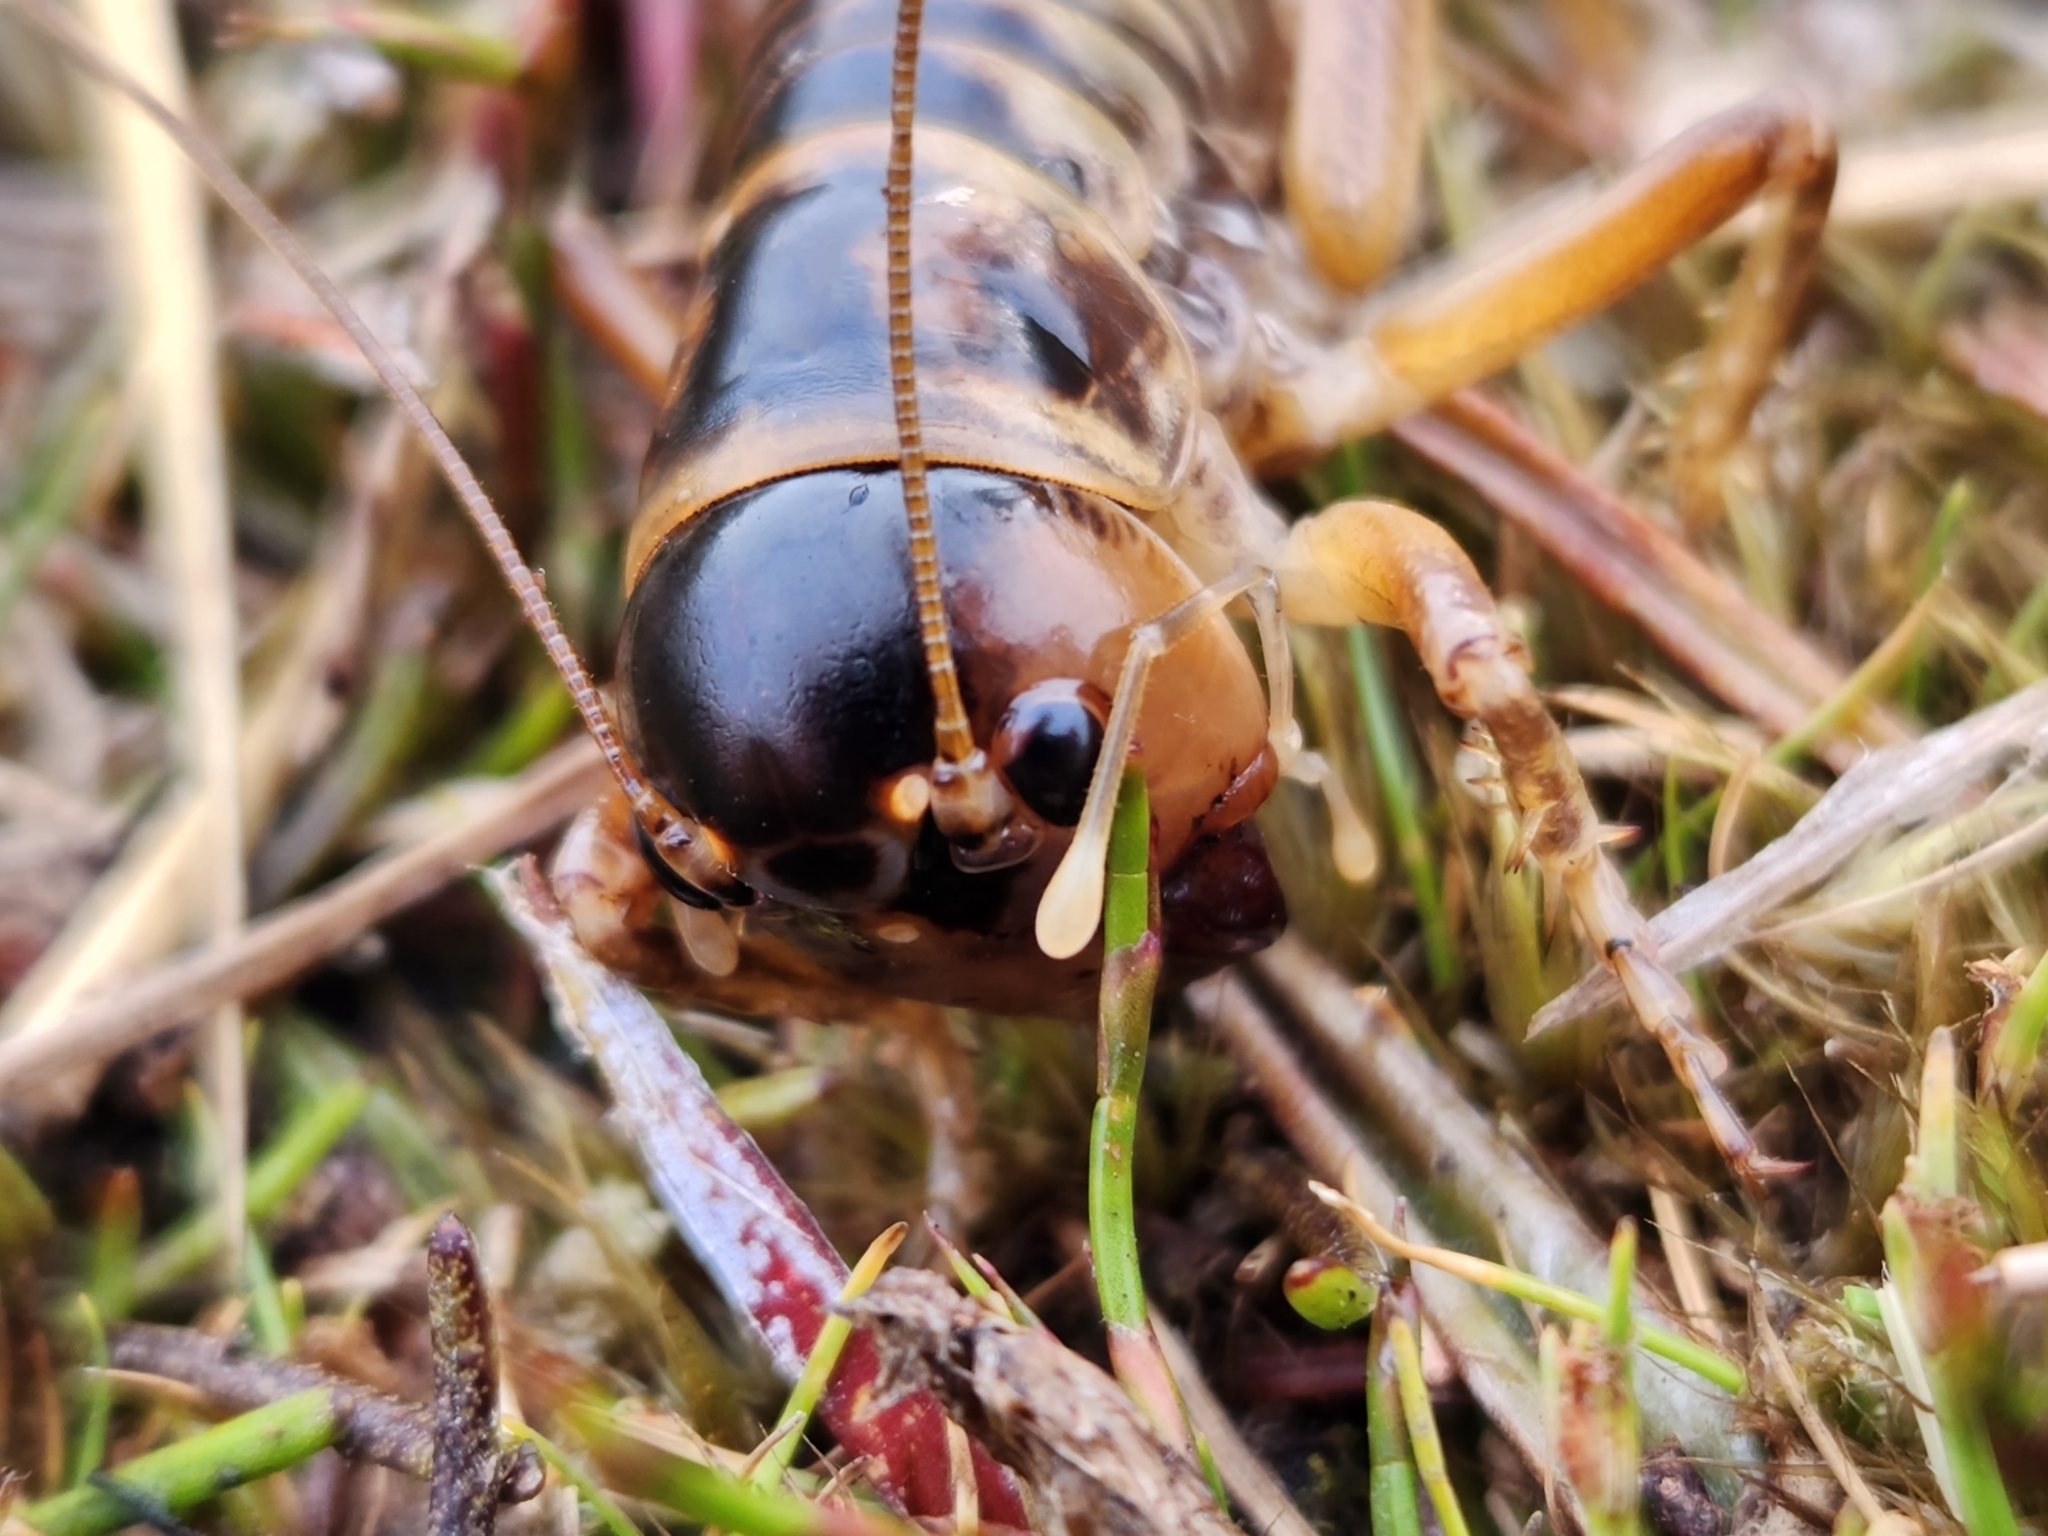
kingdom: Animalia
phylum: Arthropoda
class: Insecta
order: Orthoptera
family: Anostostomatidae
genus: Hemiandrus
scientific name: Hemiandrus focalis
